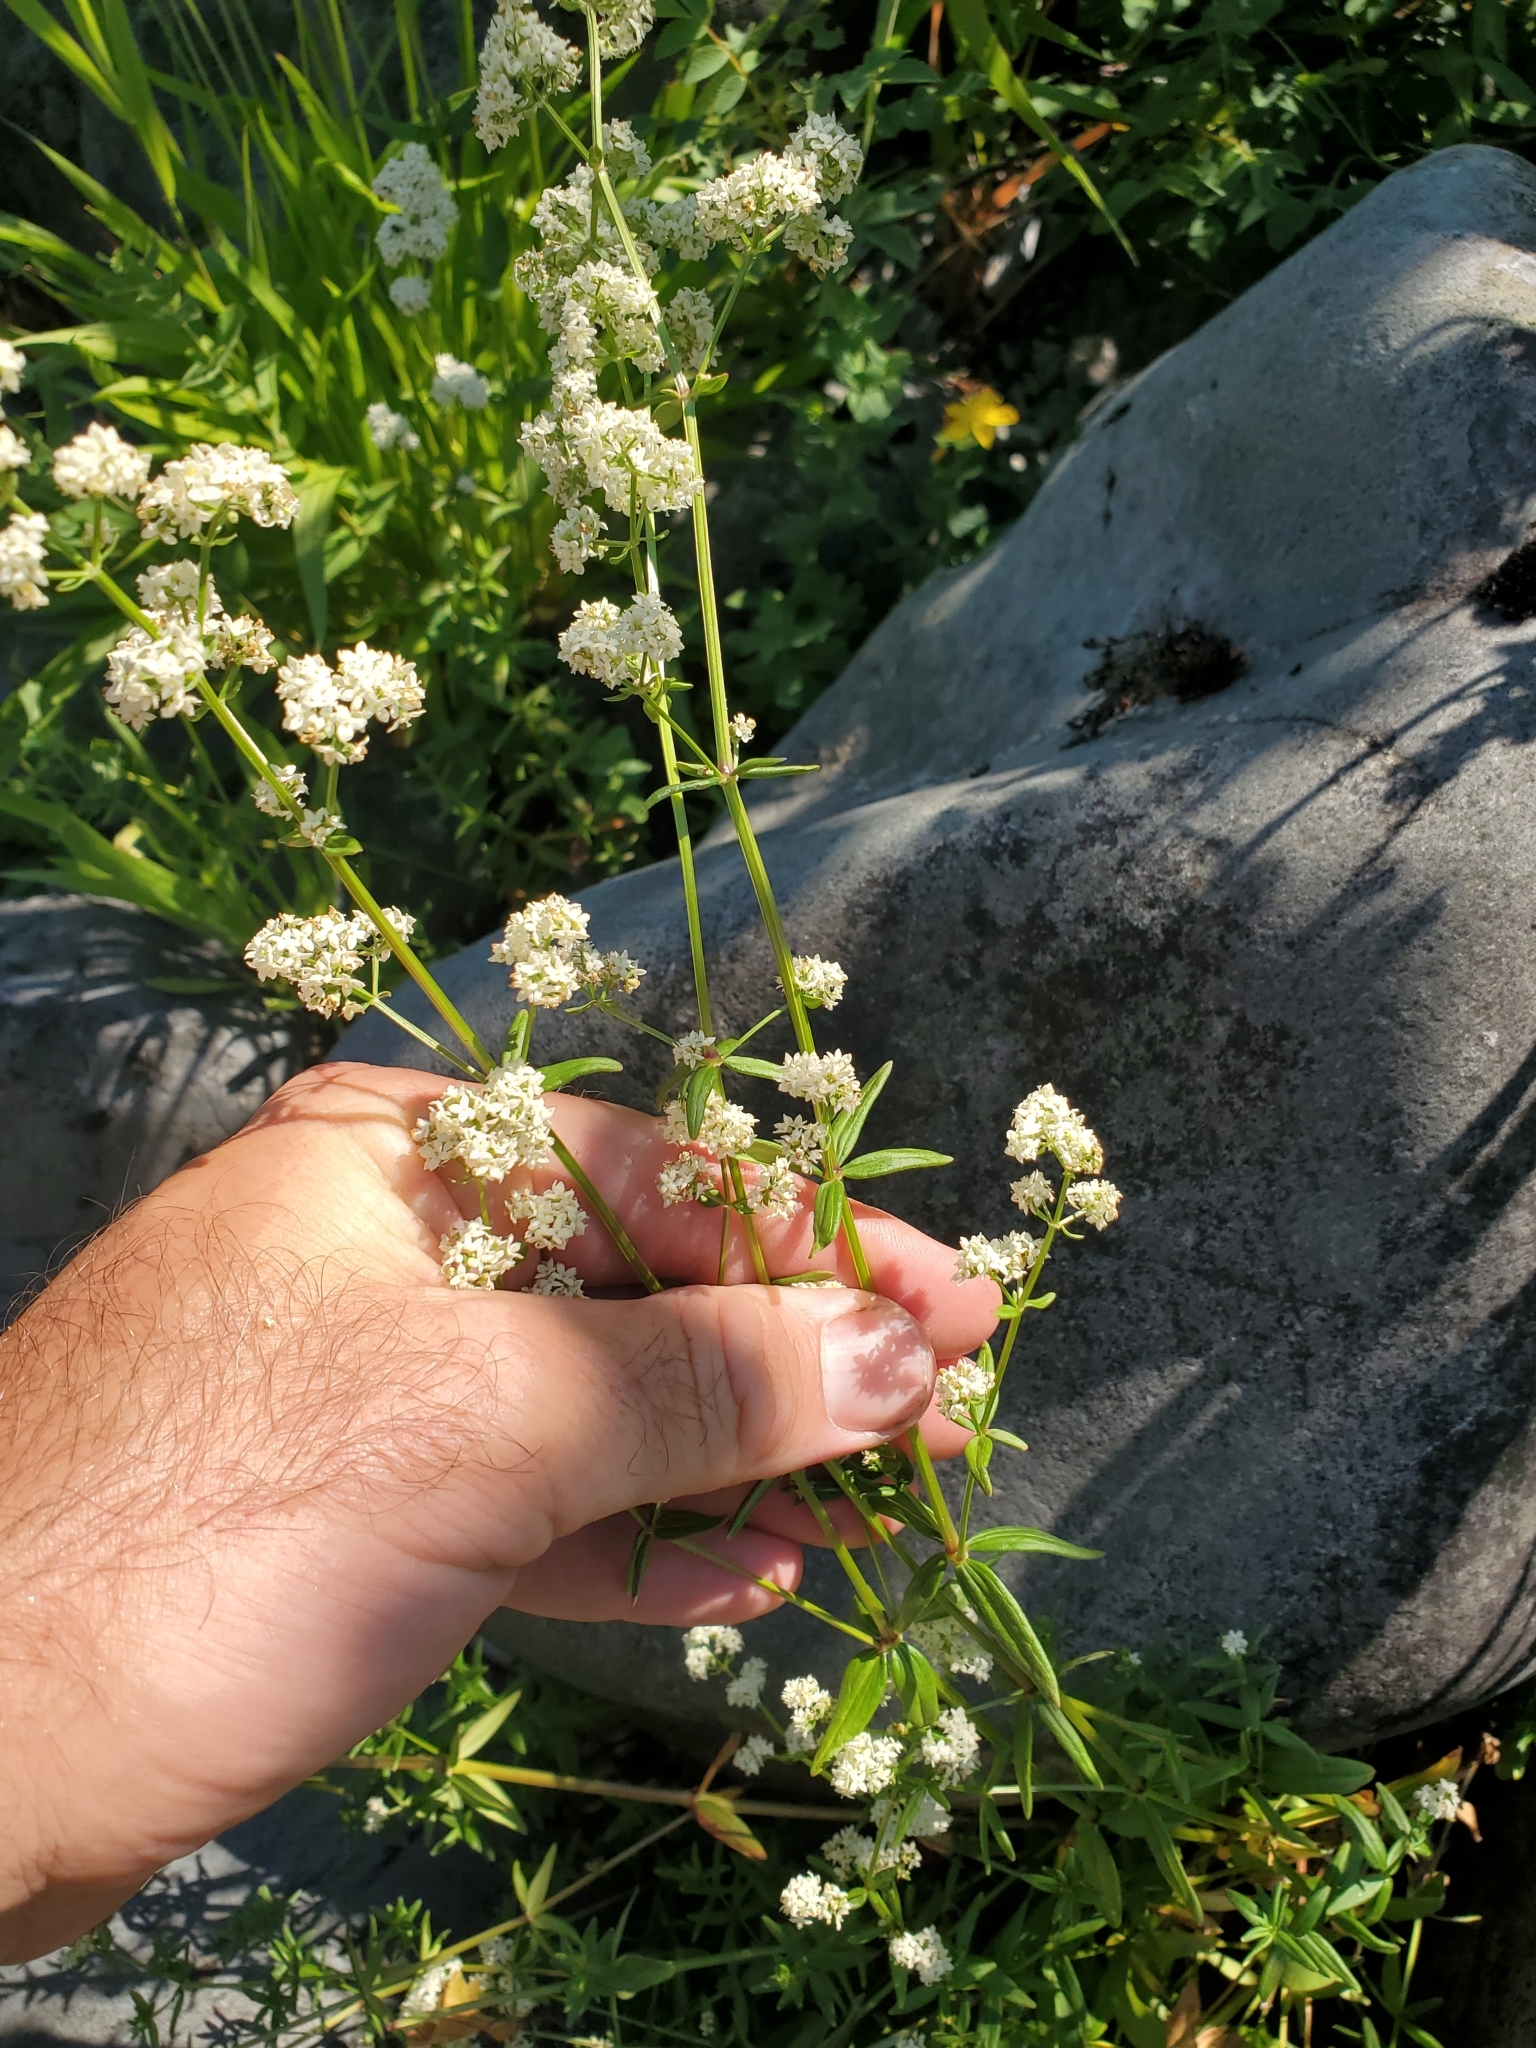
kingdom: Plantae
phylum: Tracheophyta
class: Magnoliopsida
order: Gentianales
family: Rubiaceae
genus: Galium
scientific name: Galium boreale
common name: Northern bedstraw
